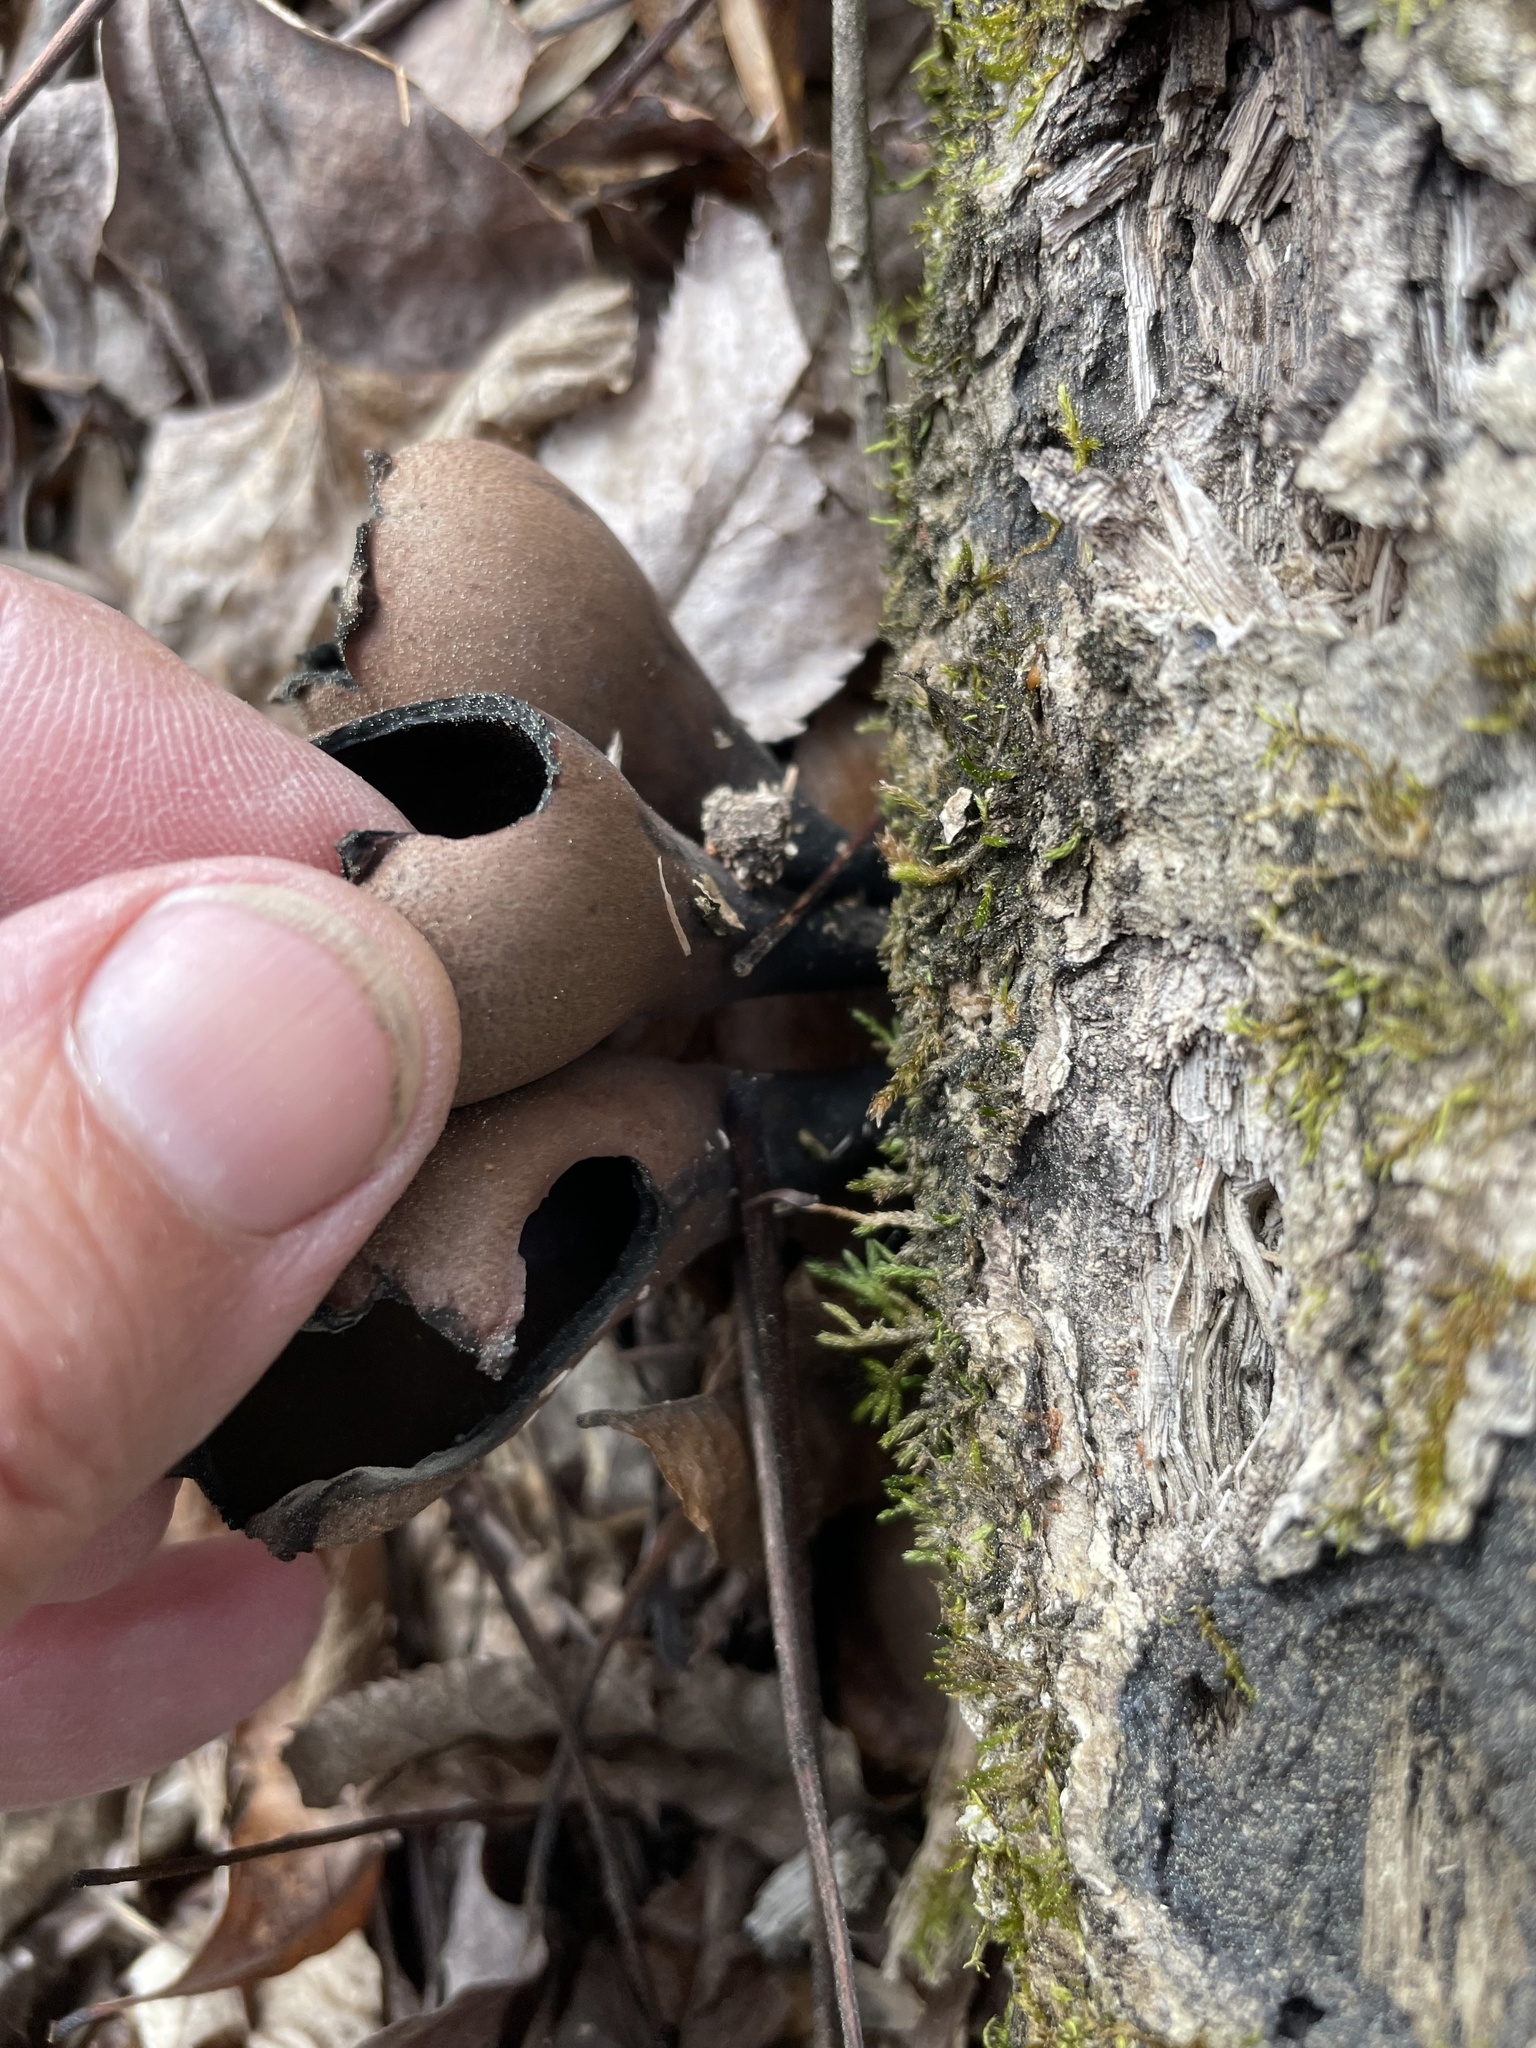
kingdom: Fungi
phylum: Ascomycota
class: Pezizomycetes
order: Pezizales
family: Helvellaceae
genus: Dissingia
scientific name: Dissingia leucomelaena
